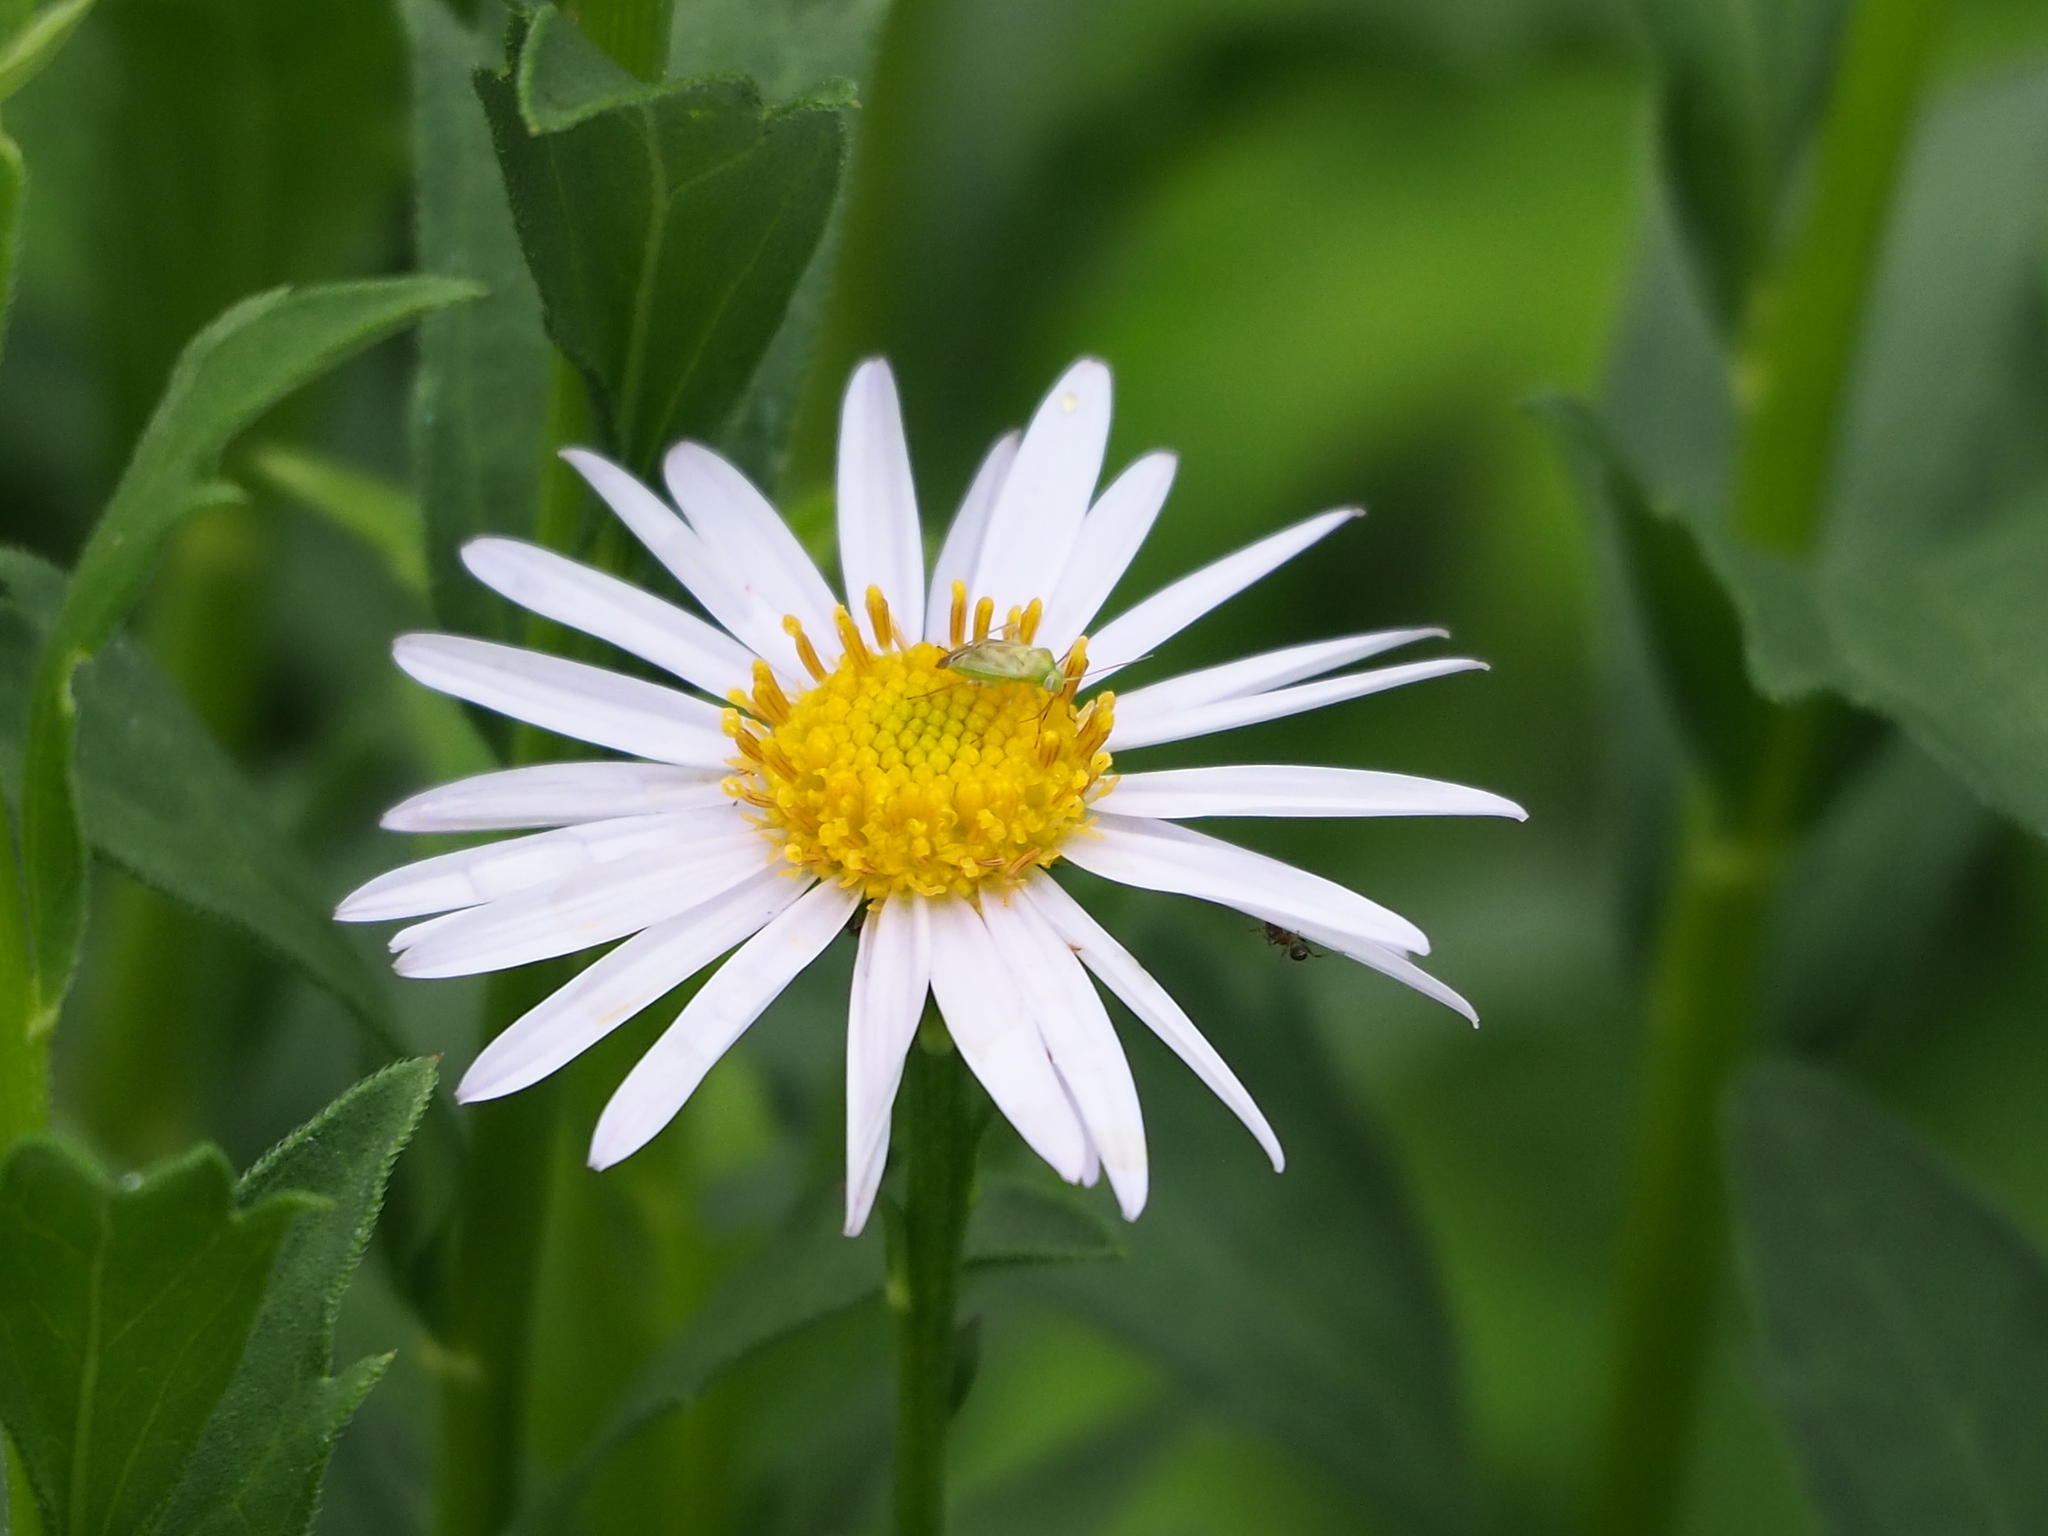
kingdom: Animalia
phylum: Arthropoda
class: Insecta
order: Hemiptera
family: Miridae
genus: Taylorilygus
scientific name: Taylorilygus apicalis
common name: Plant bug
